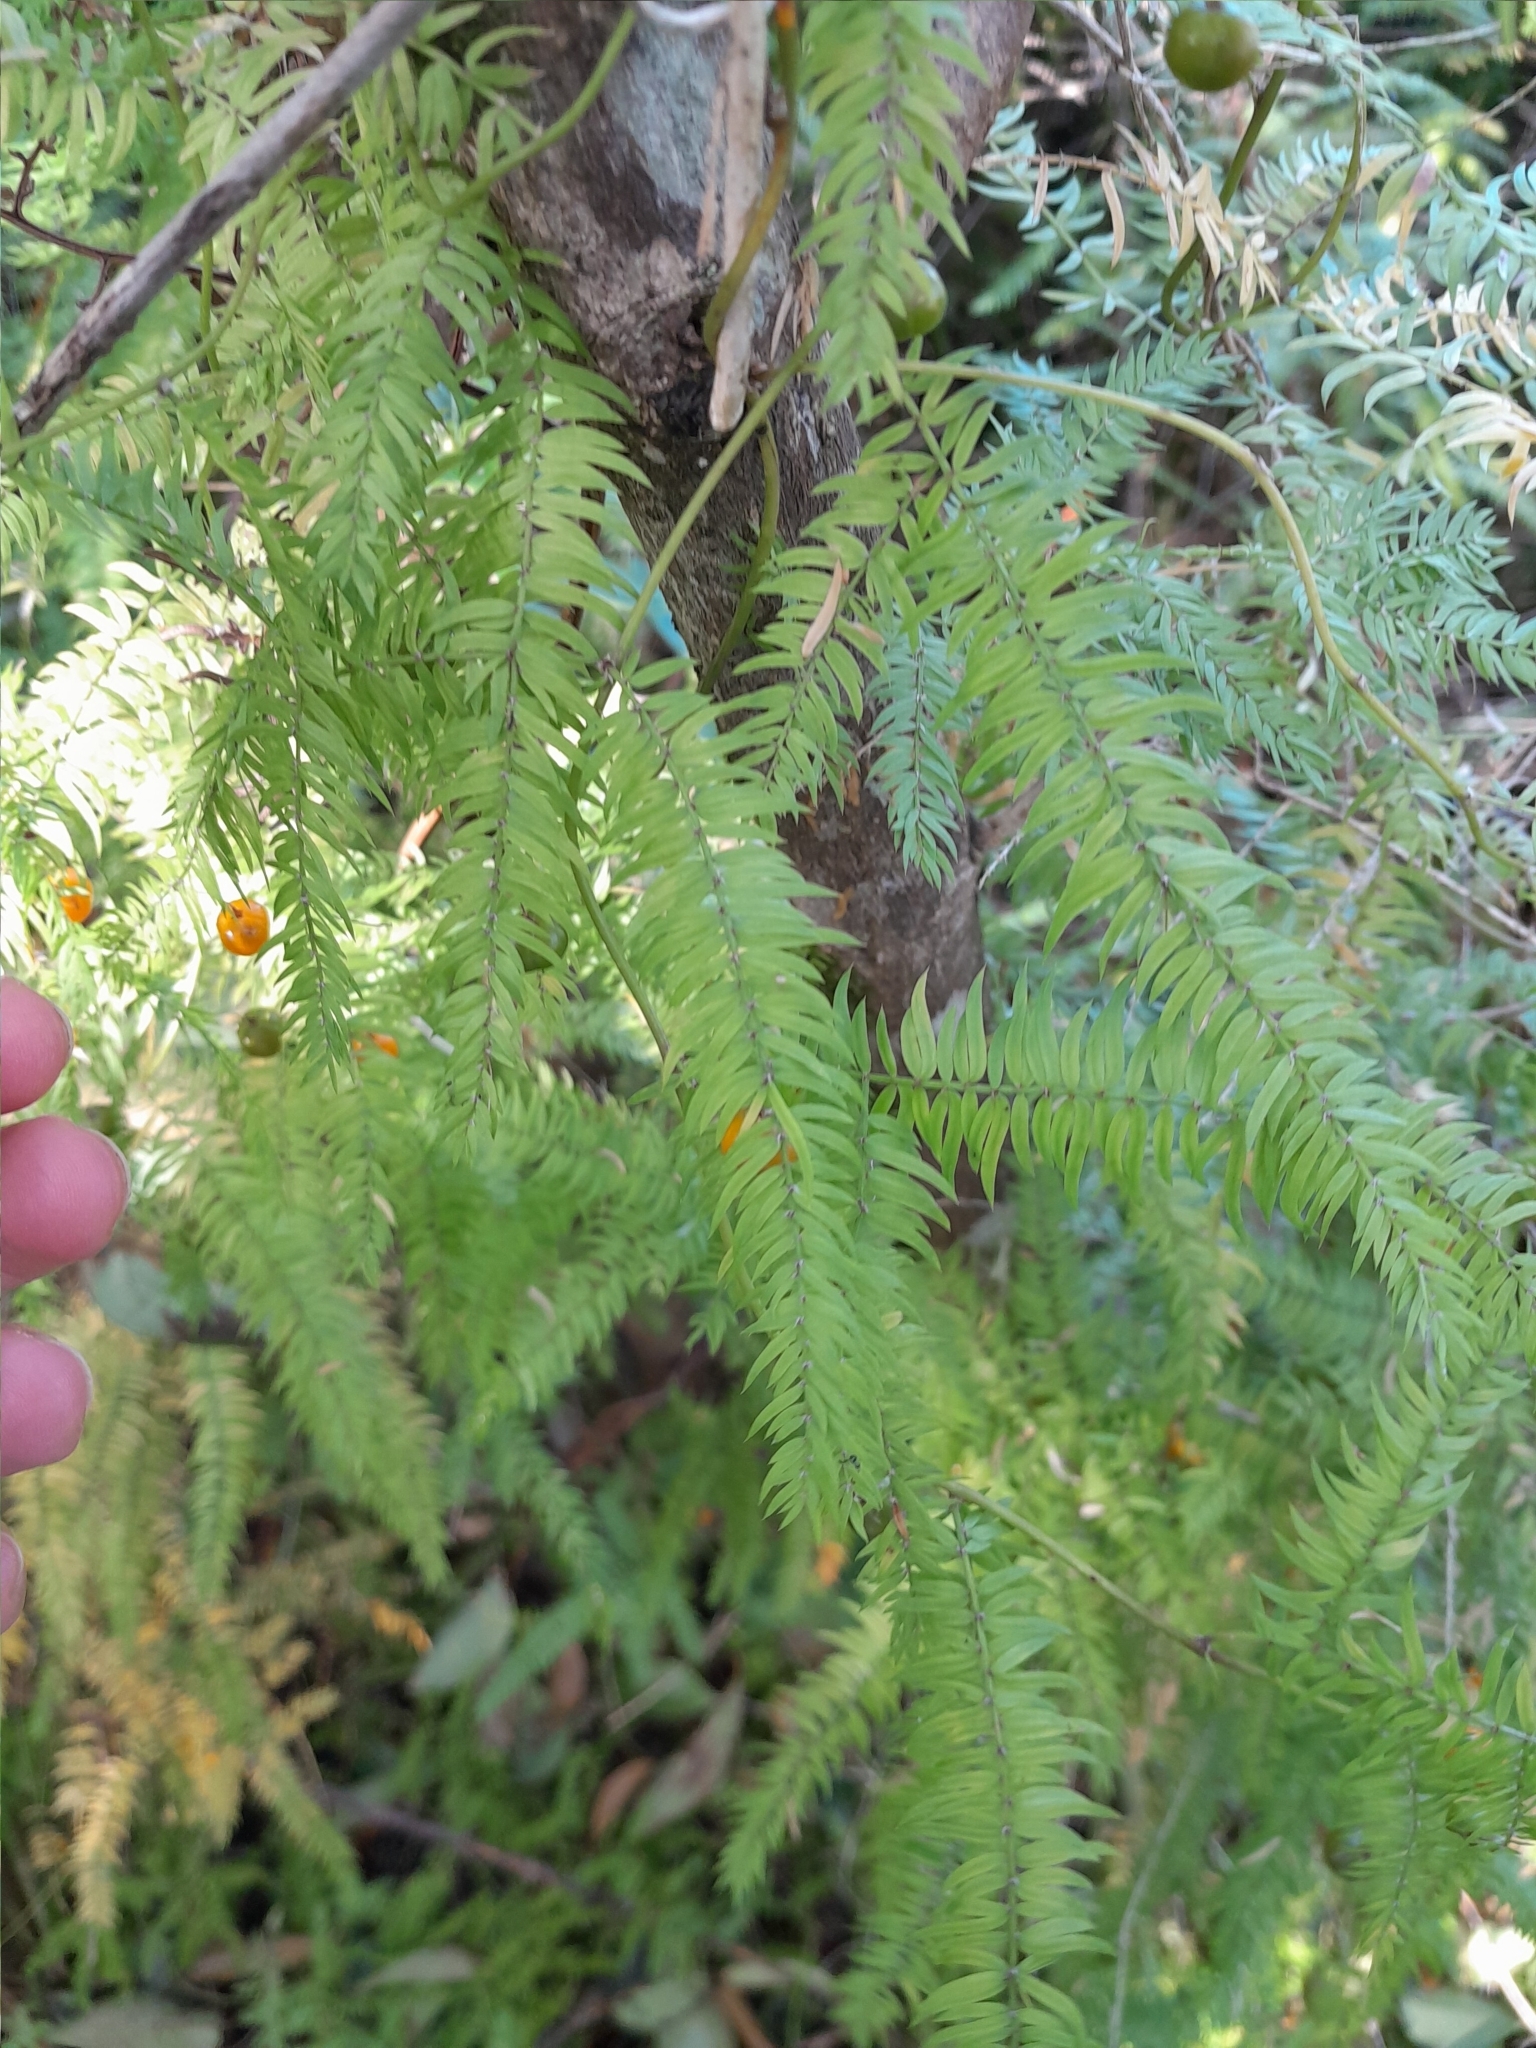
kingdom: Plantae
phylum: Tracheophyta
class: Liliopsida
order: Asparagales
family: Asparagaceae
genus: Asparagus
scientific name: Asparagus scandens
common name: Asparagus-fern
